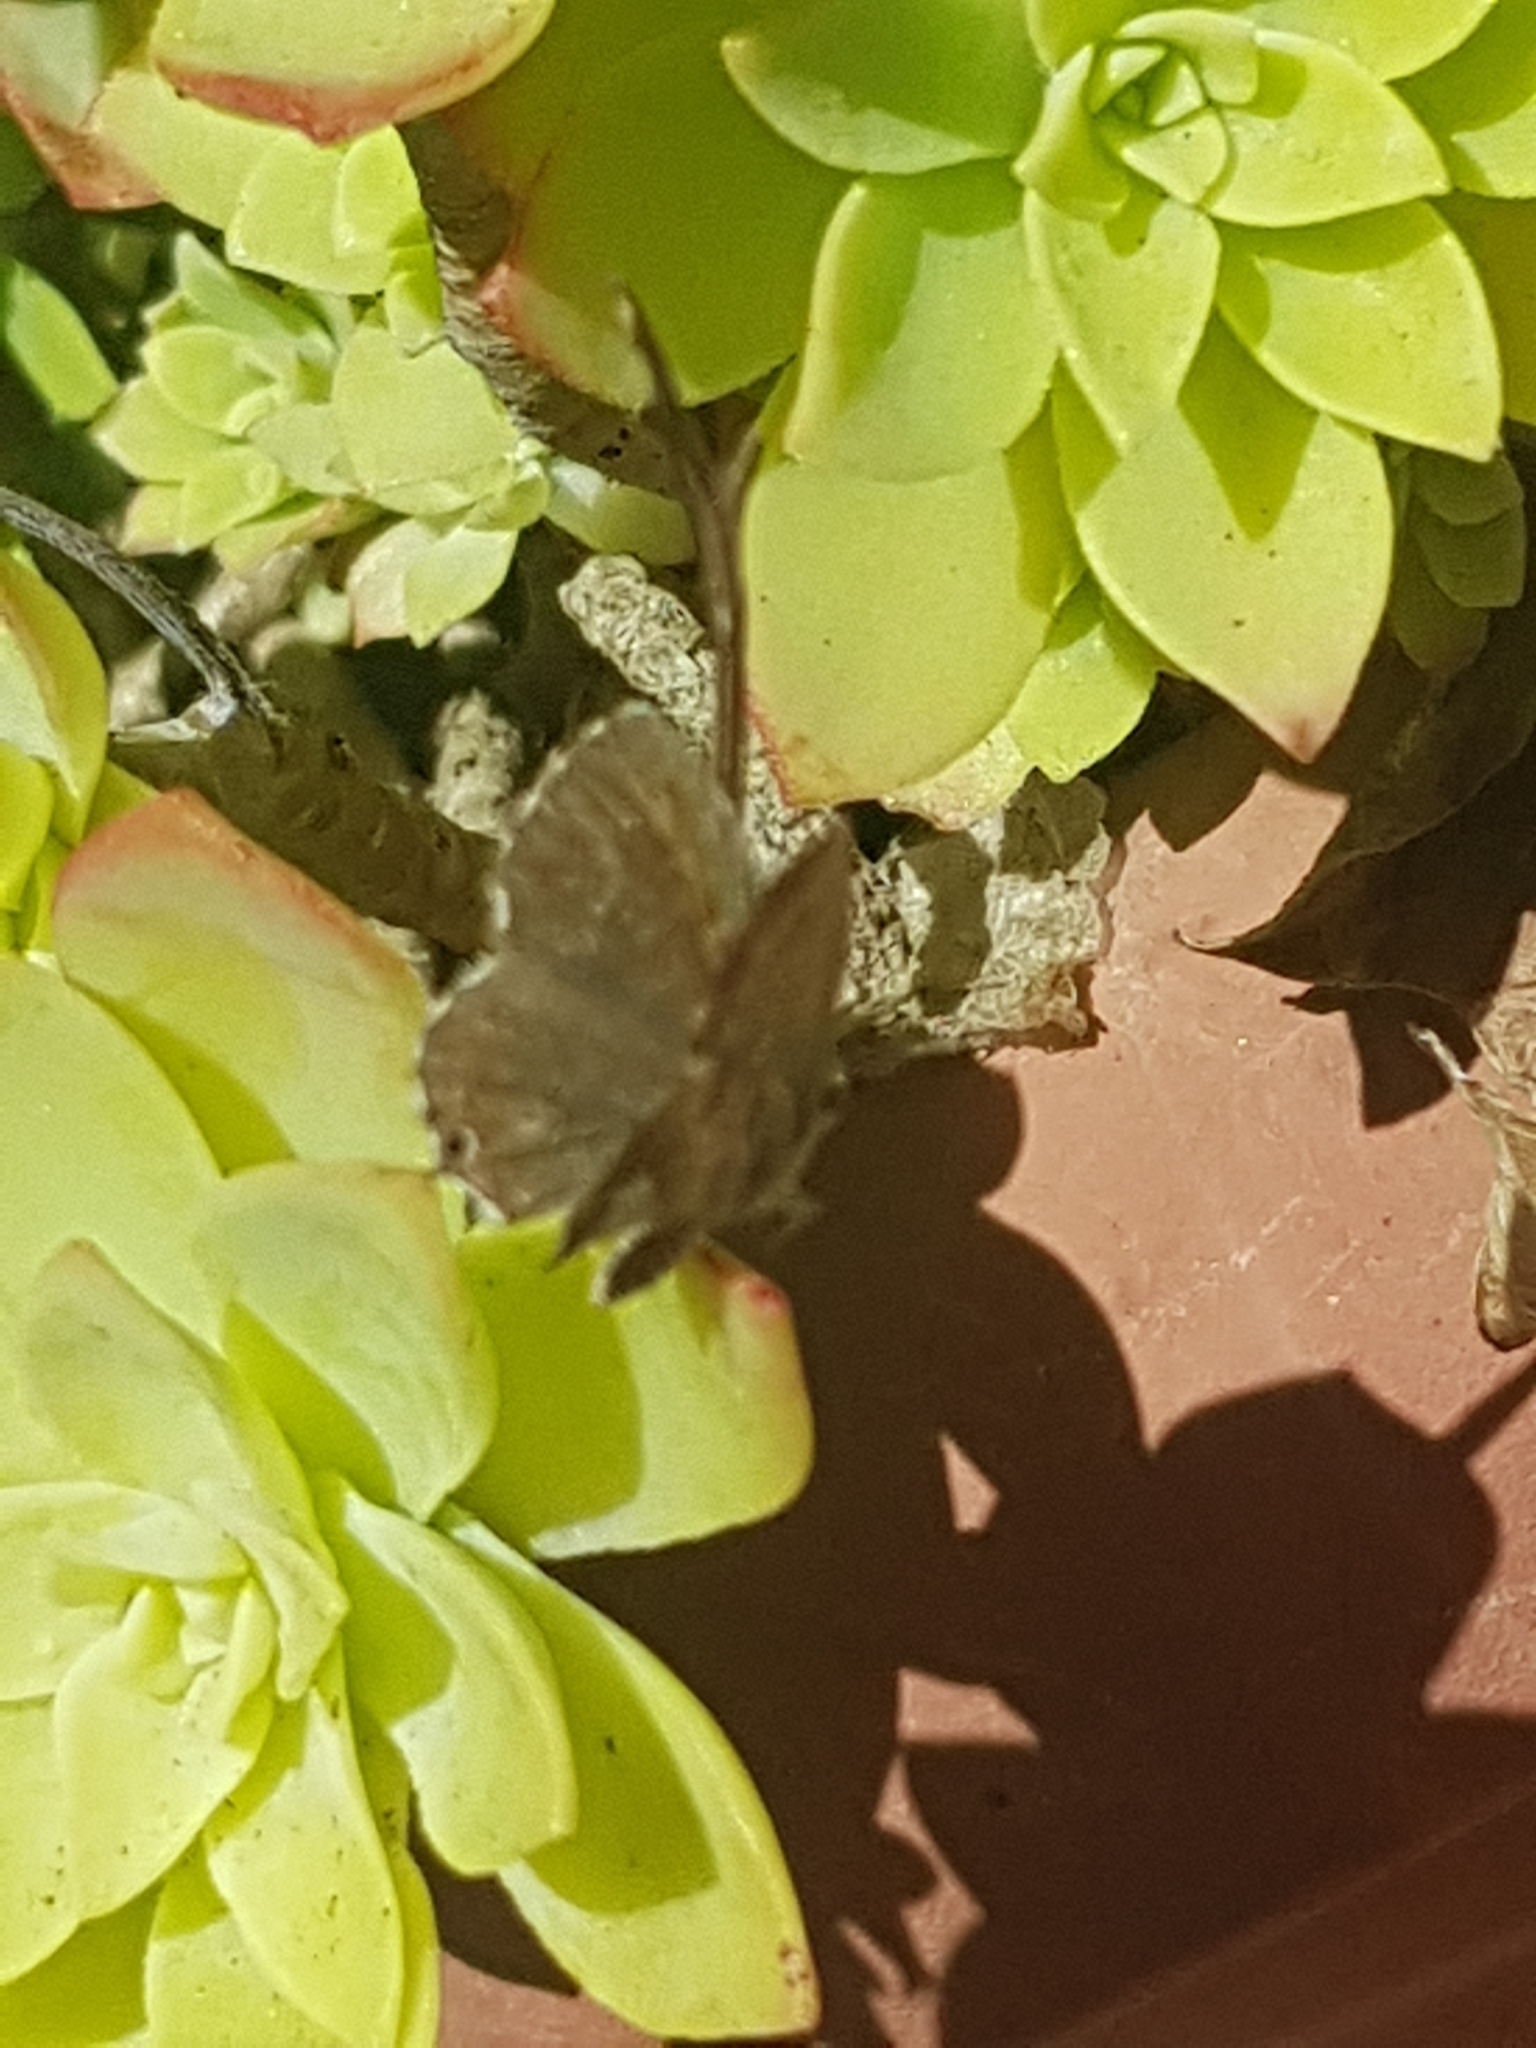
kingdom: Animalia
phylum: Arthropoda
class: Insecta
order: Lepidoptera
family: Lycaenidae
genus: Cacyreus
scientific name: Cacyreus marshalli
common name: Geranium bronze
